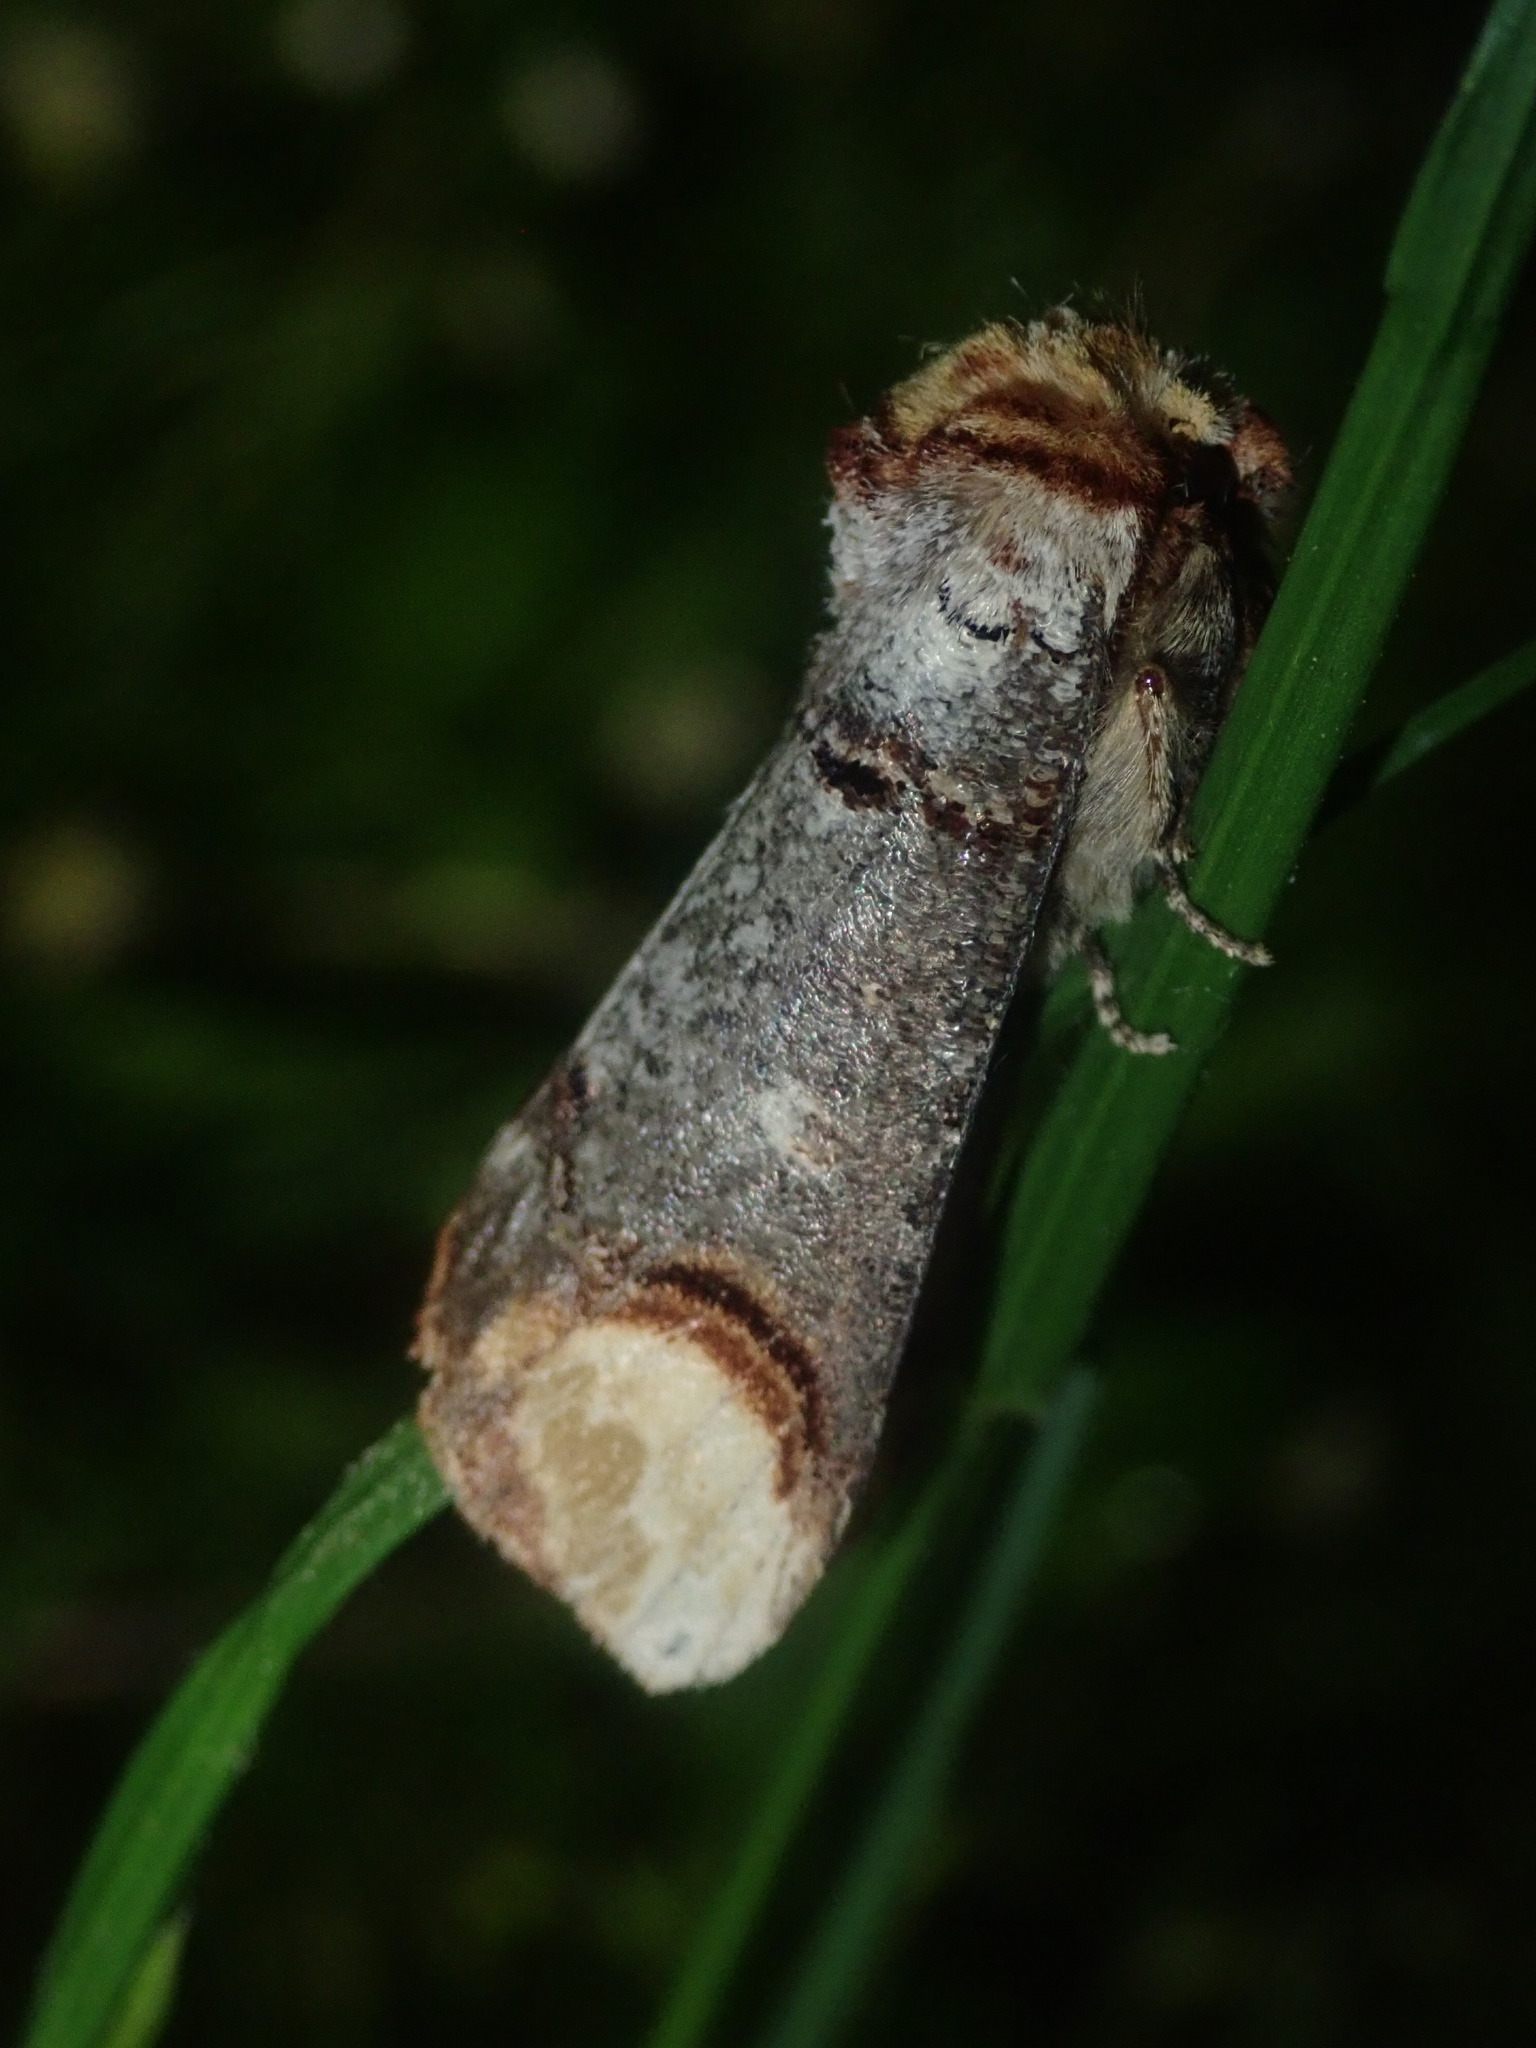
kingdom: Animalia
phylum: Arthropoda
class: Insecta
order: Lepidoptera
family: Notodontidae
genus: Phalera
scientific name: Phalera bucephala
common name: Buff-tip
